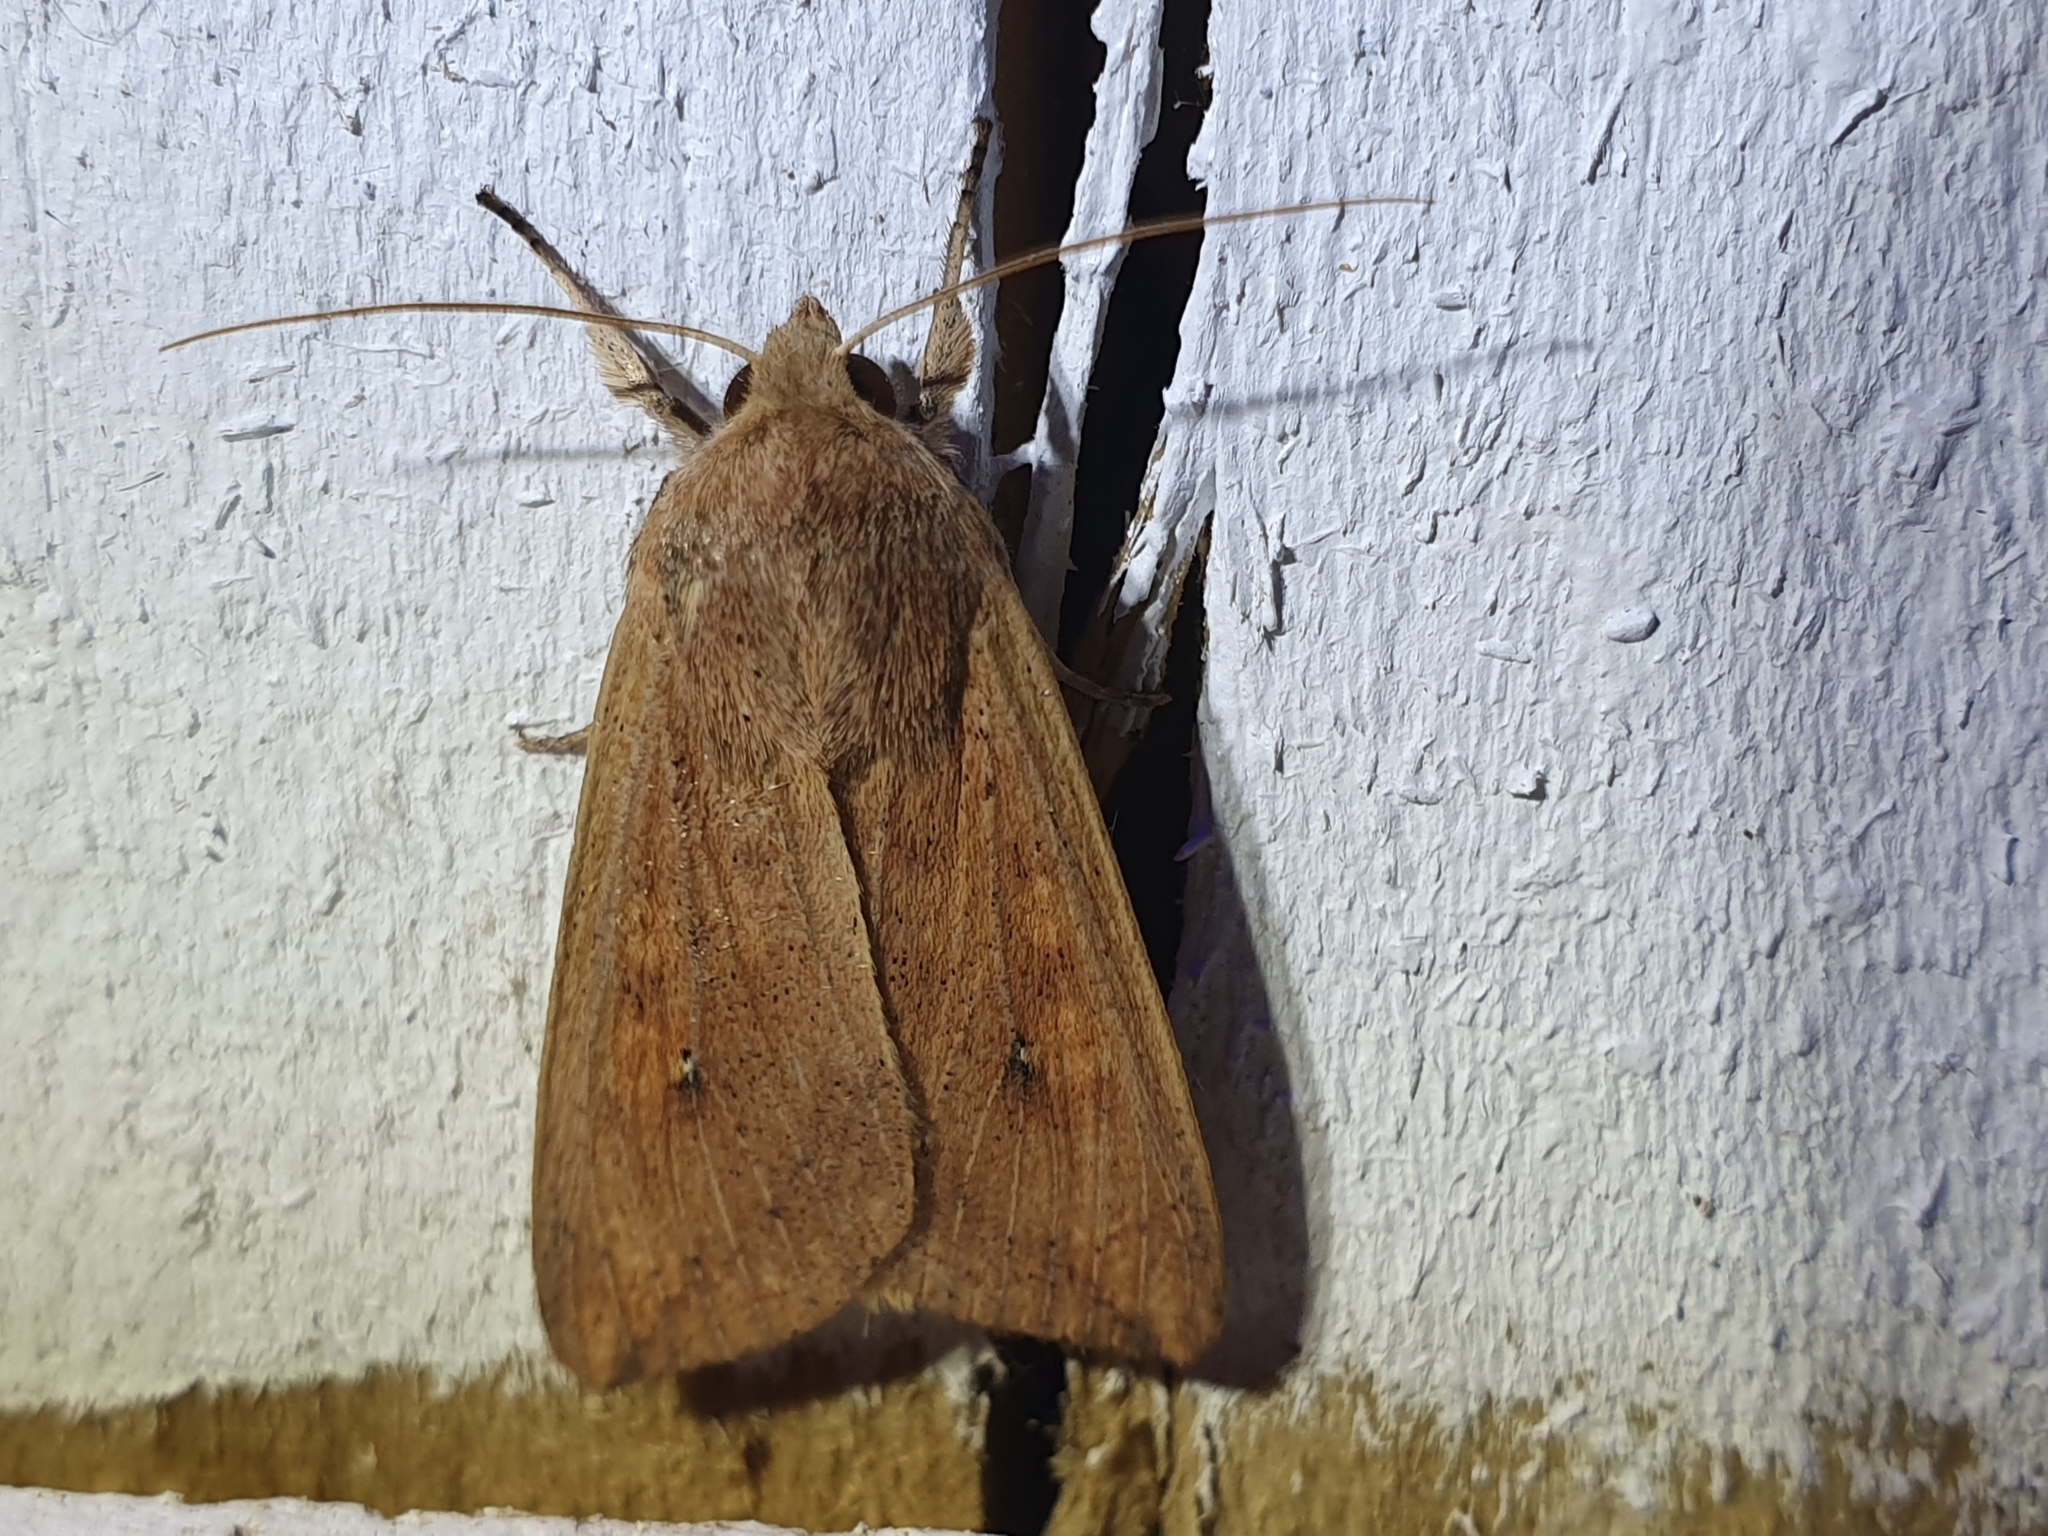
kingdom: Animalia
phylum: Arthropoda
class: Insecta
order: Lepidoptera
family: Noctuidae
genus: Mythimna
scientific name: Mythimna separata
